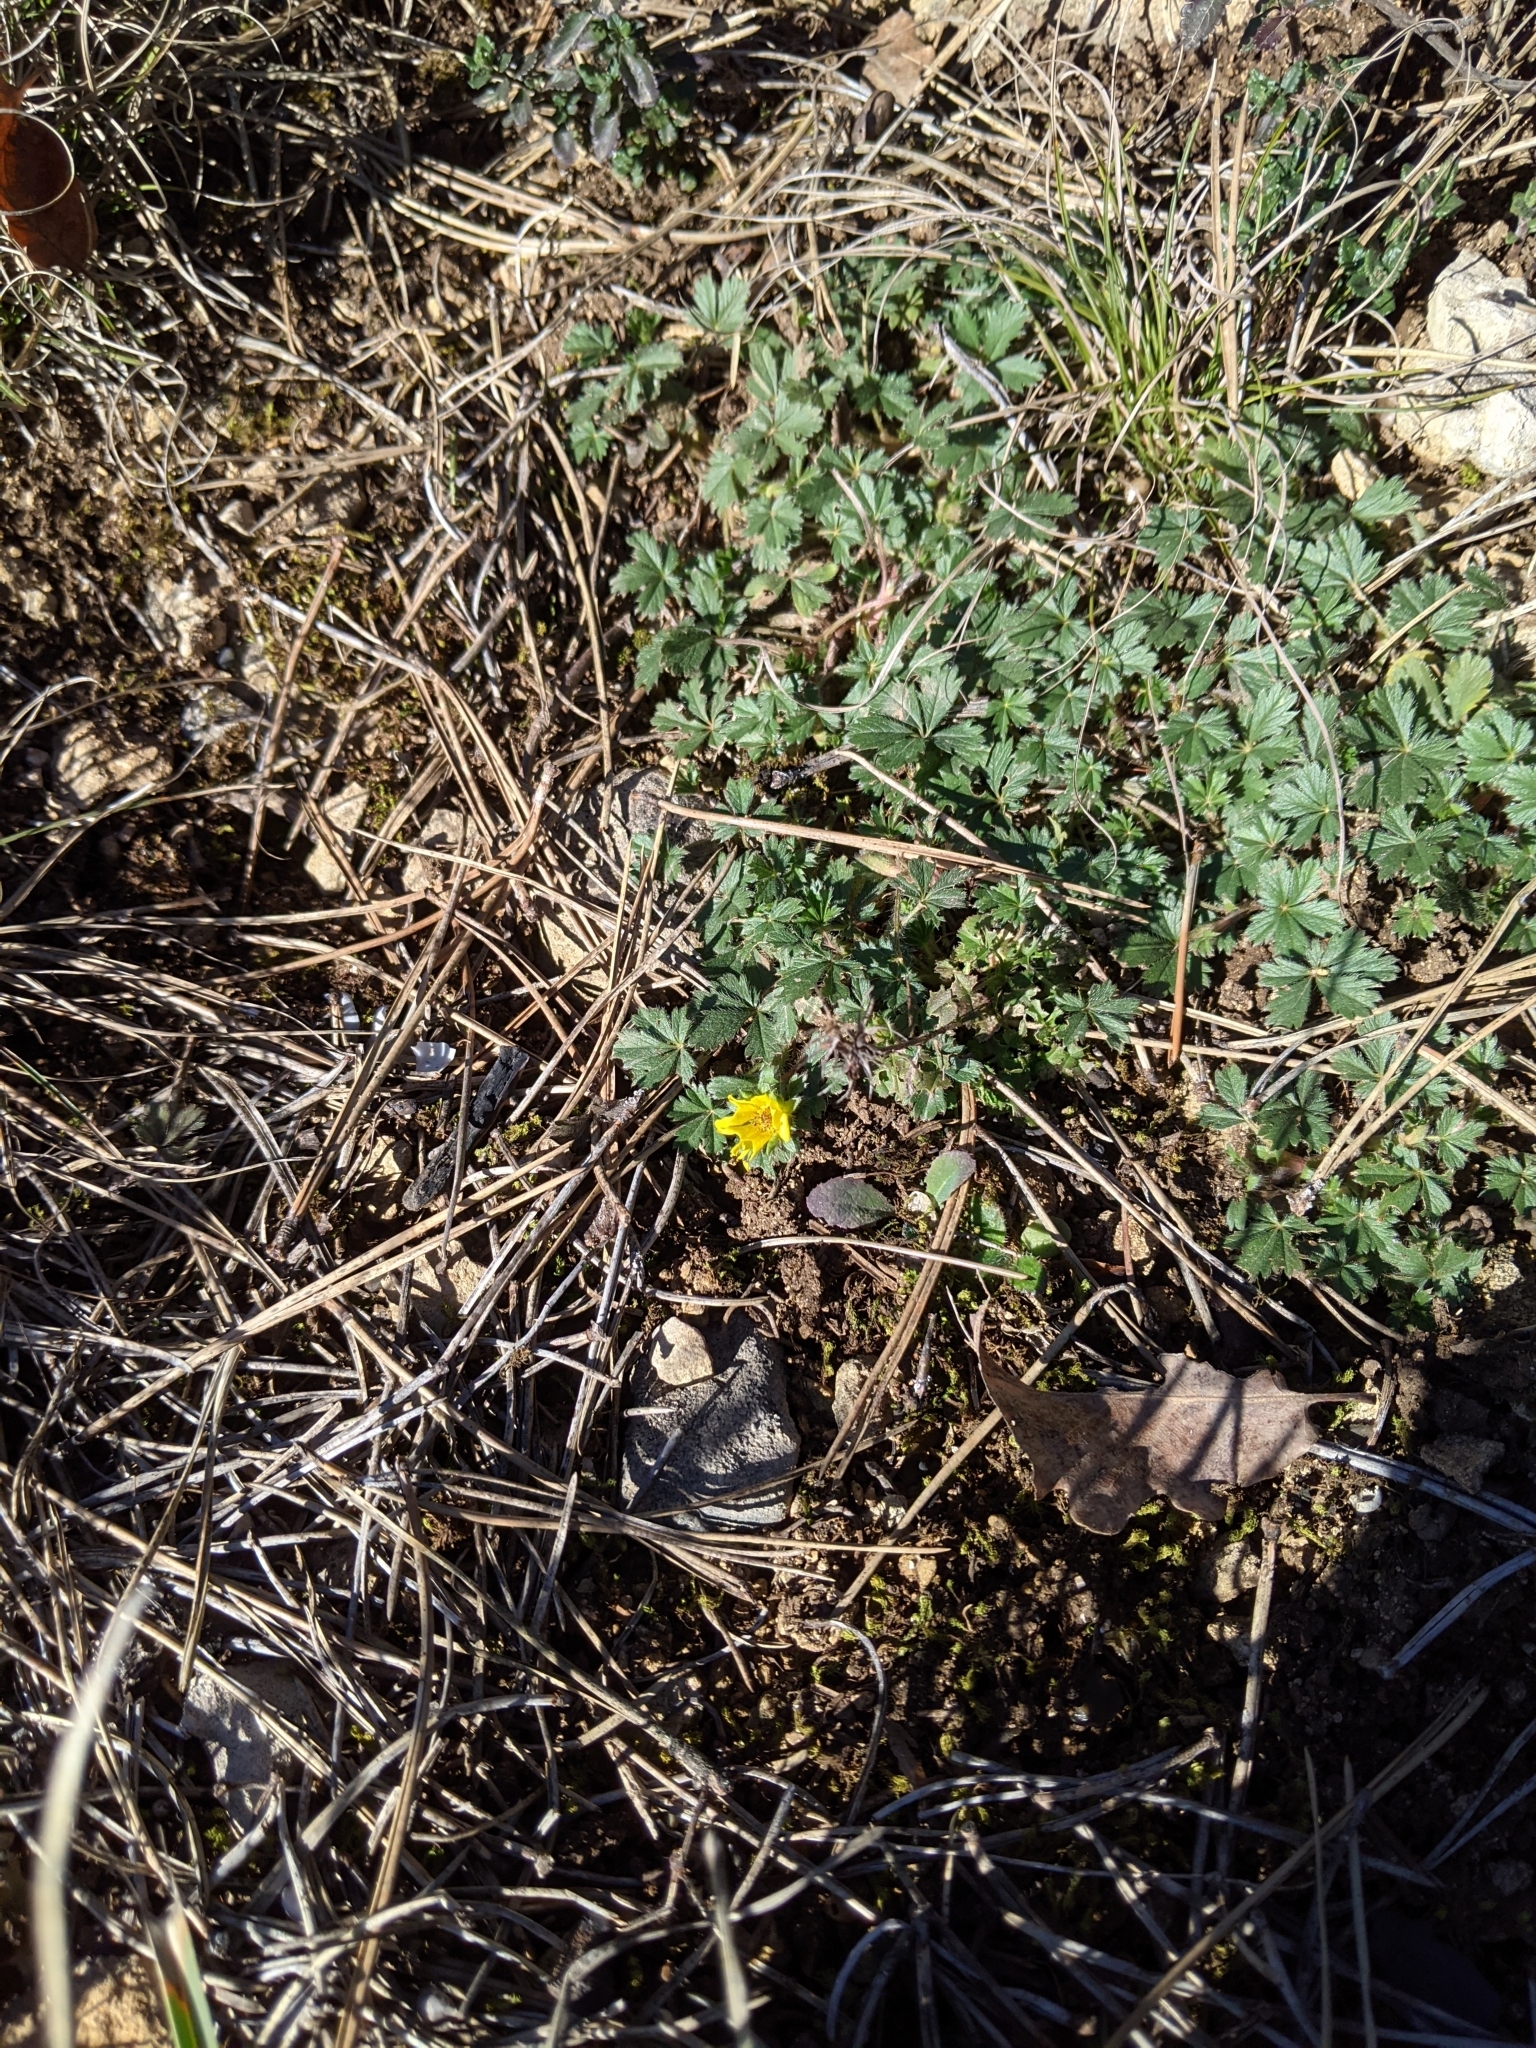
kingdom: Plantae
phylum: Tracheophyta
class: Magnoliopsida
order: Rosales
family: Rosaceae
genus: Potentilla
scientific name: Potentilla verna
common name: Spring cinquefoil
